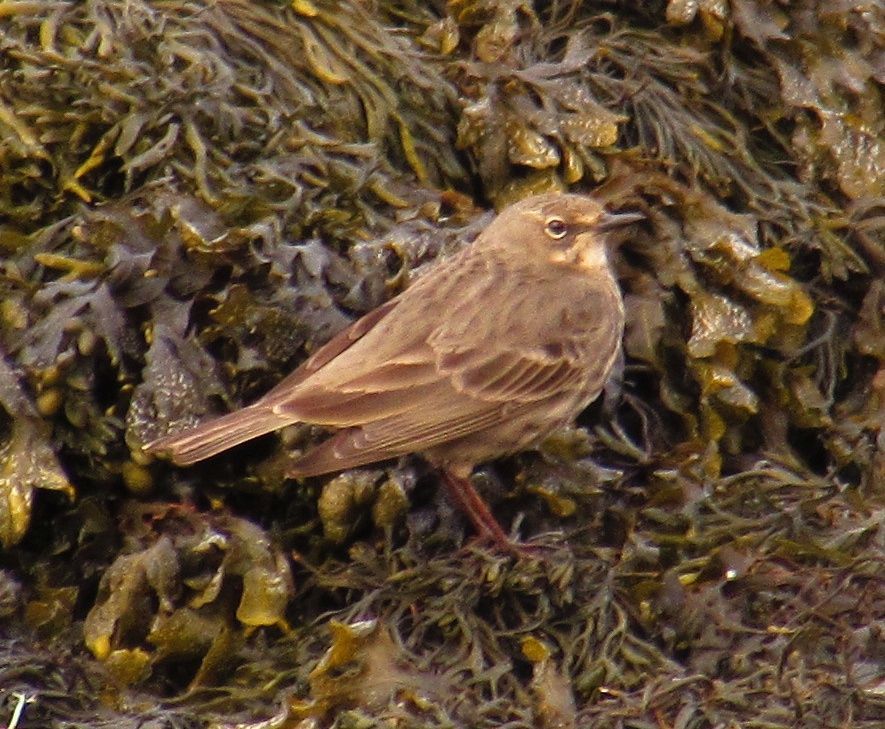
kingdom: Animalia
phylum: Chordata
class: Aves
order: Passeriformes
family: Motacillidae
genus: Anthus
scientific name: Anthus petrosus
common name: Eurasian rock pipit
